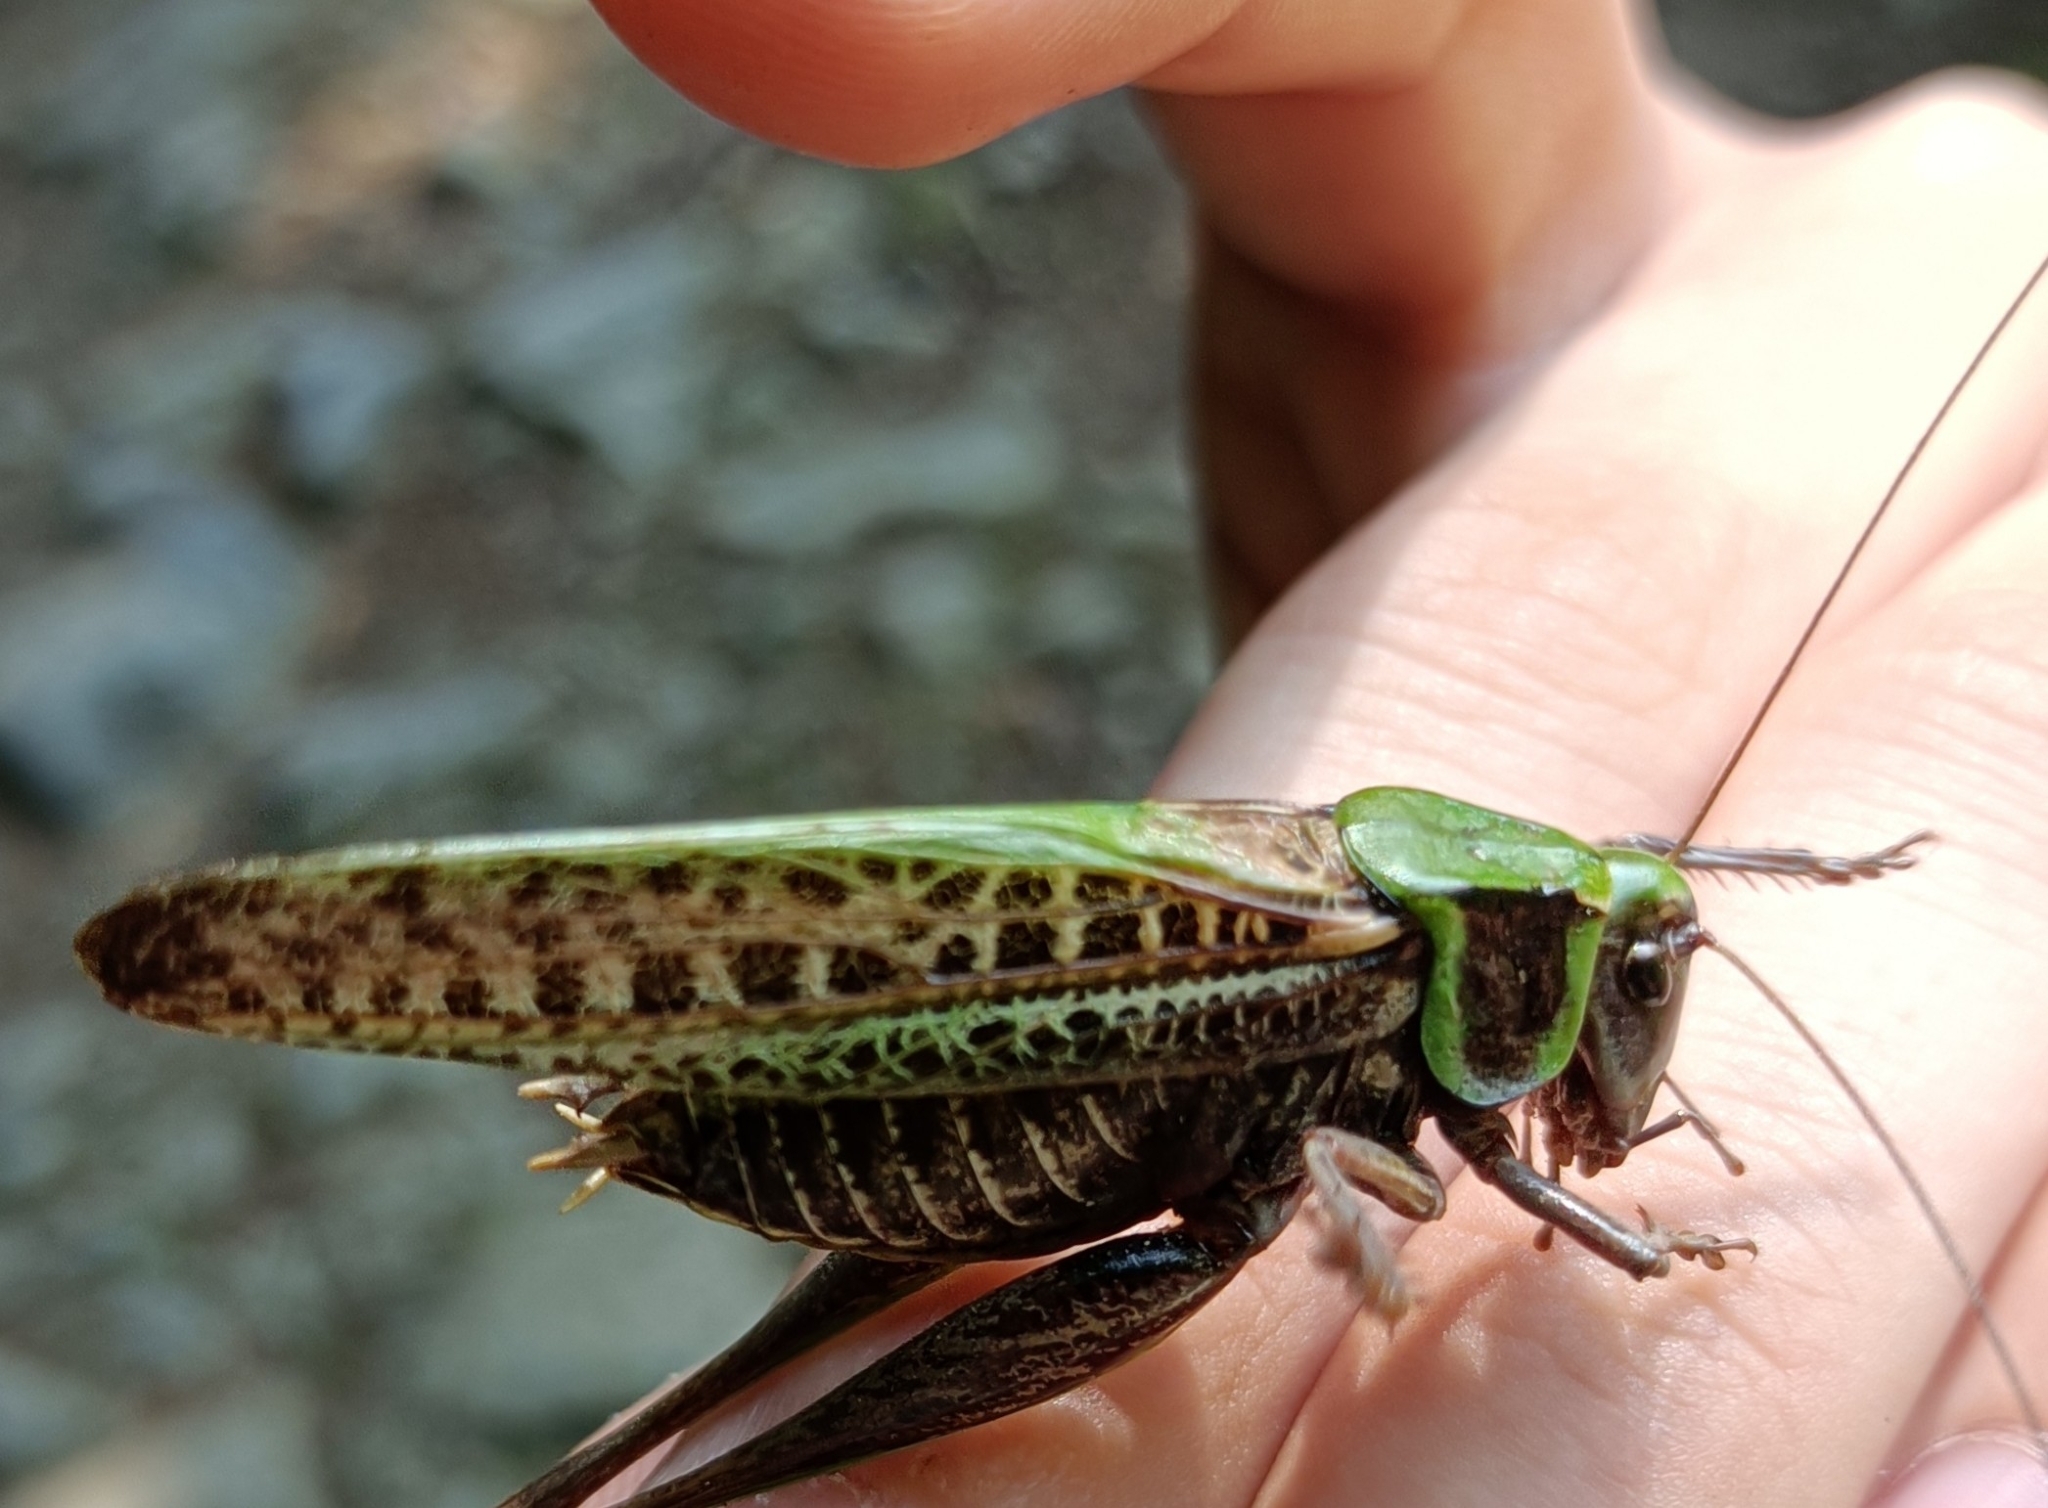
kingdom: Animalia
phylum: Arthropoda
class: Insecta
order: Orthoptera
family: Tettigoniidae
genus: Decticus
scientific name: Decticus verrucivorus
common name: Wart-biter
